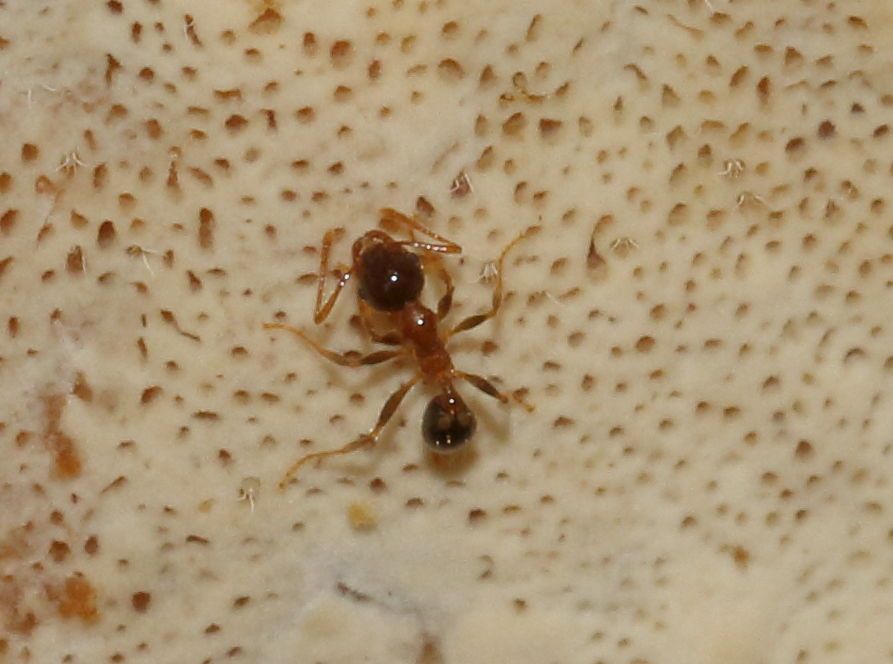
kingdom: Animalia
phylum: Arthropoda
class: Insecta
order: Hymenoptera
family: Formicidae
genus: Pheidole
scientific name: Pheidole megacephala
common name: Bigheaded ant
